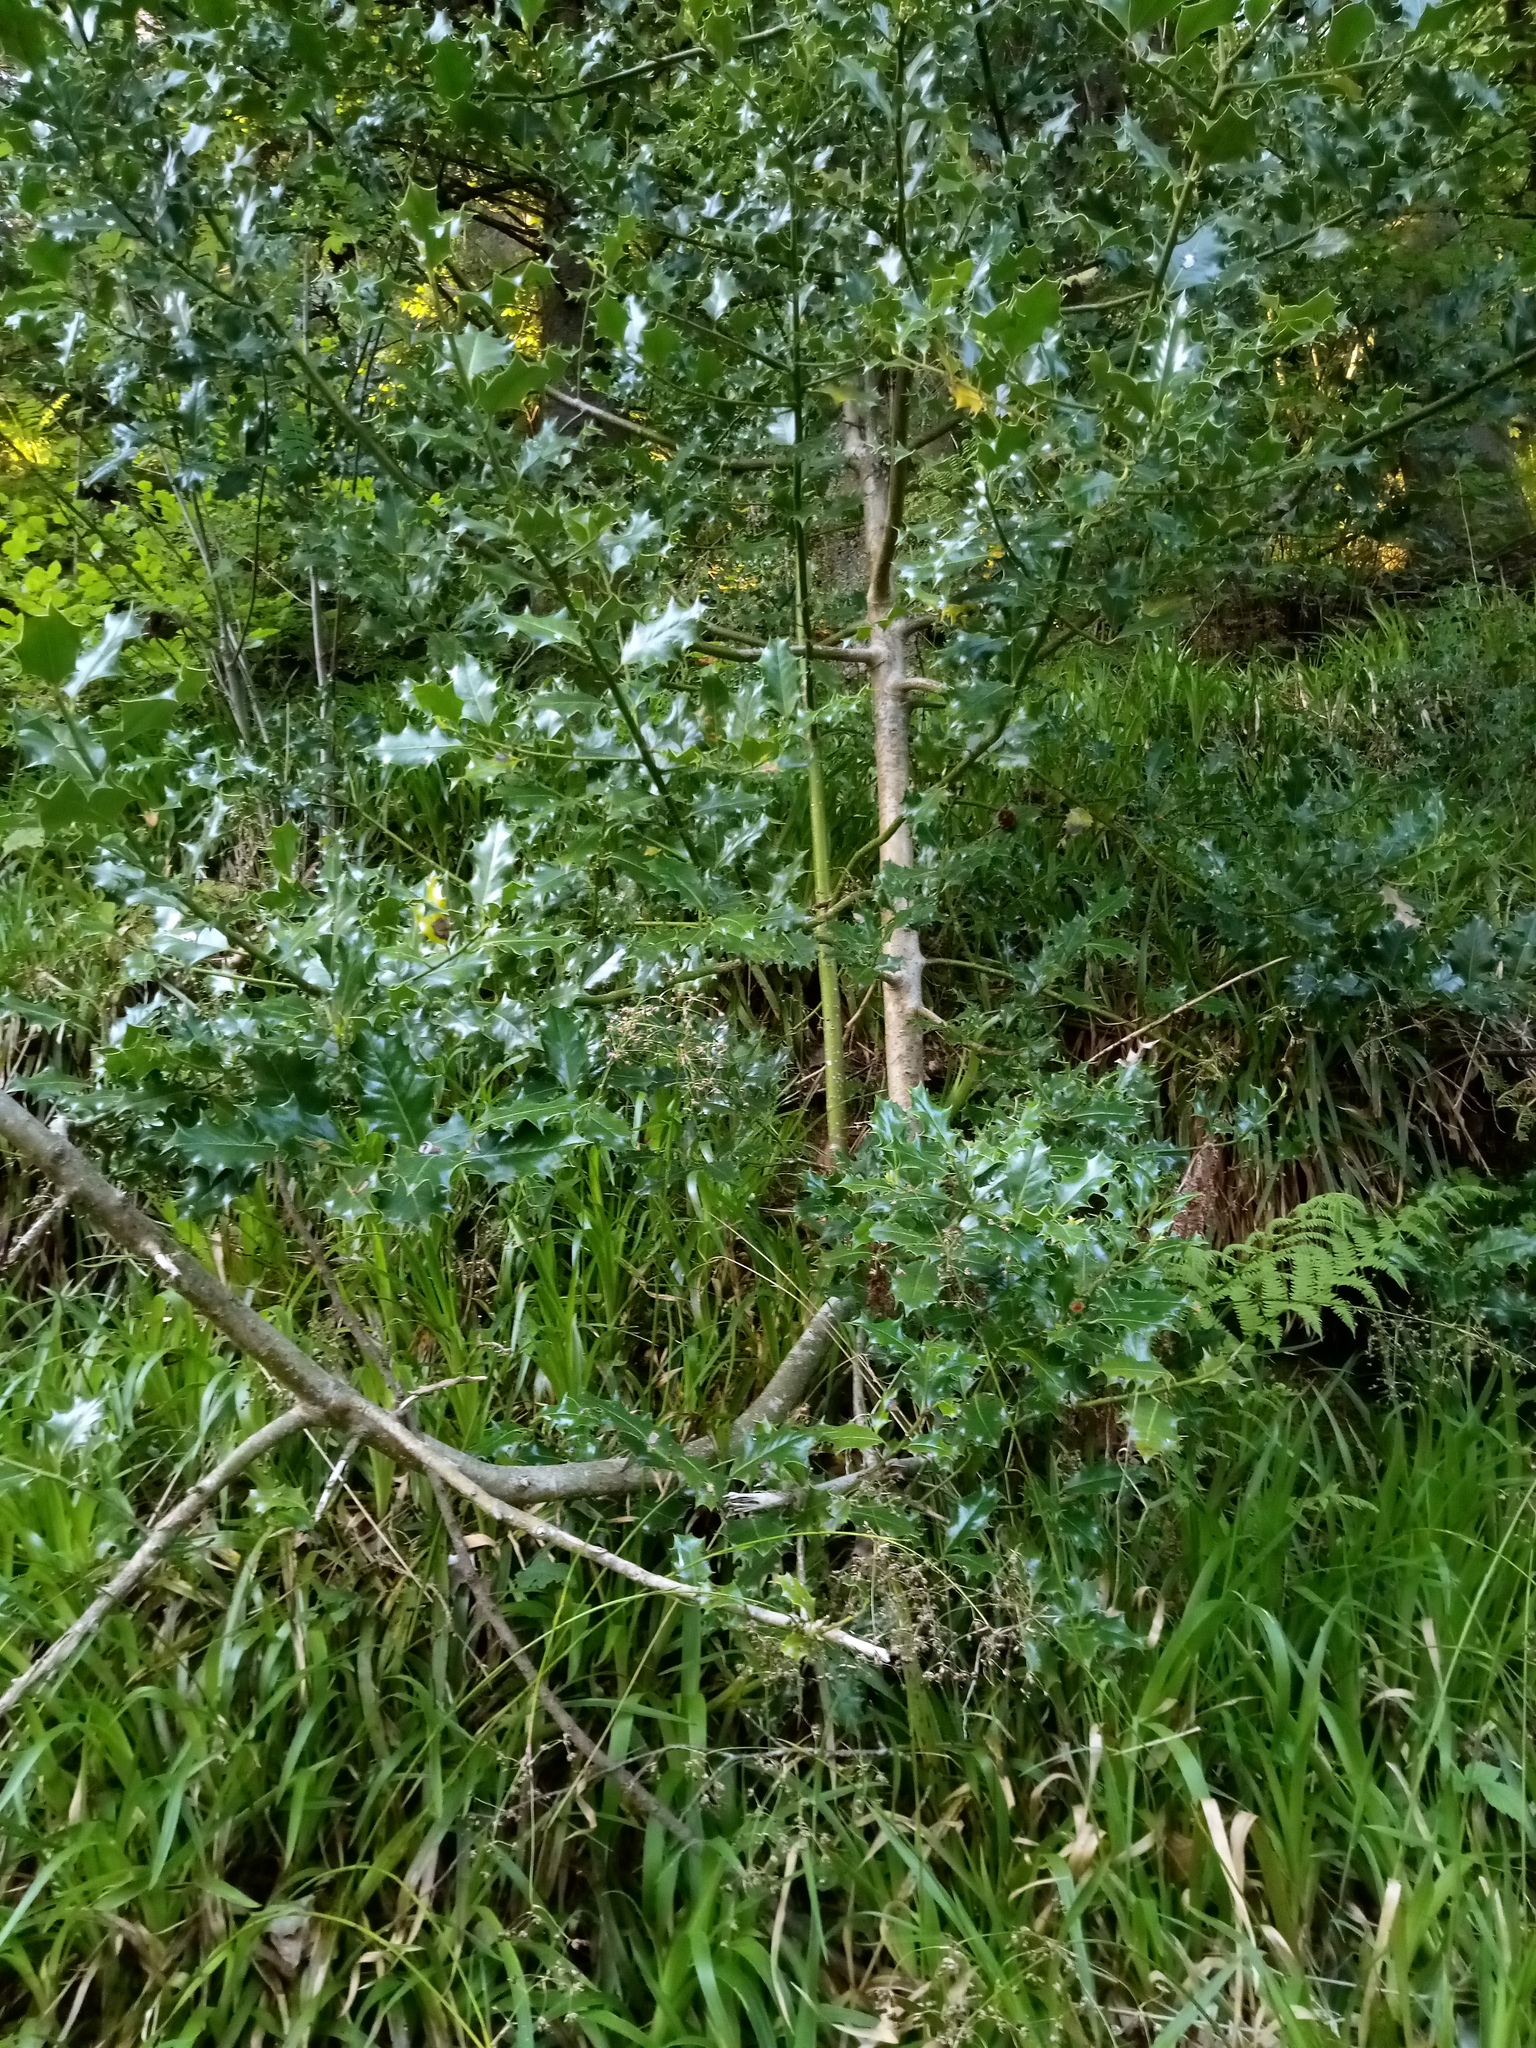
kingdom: Plantae
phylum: Tracheophyta
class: Magnoliopsida
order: Aquifoliales
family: Aquifoliaceae
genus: Ilex
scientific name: Ilex aquifolium
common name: English holly
